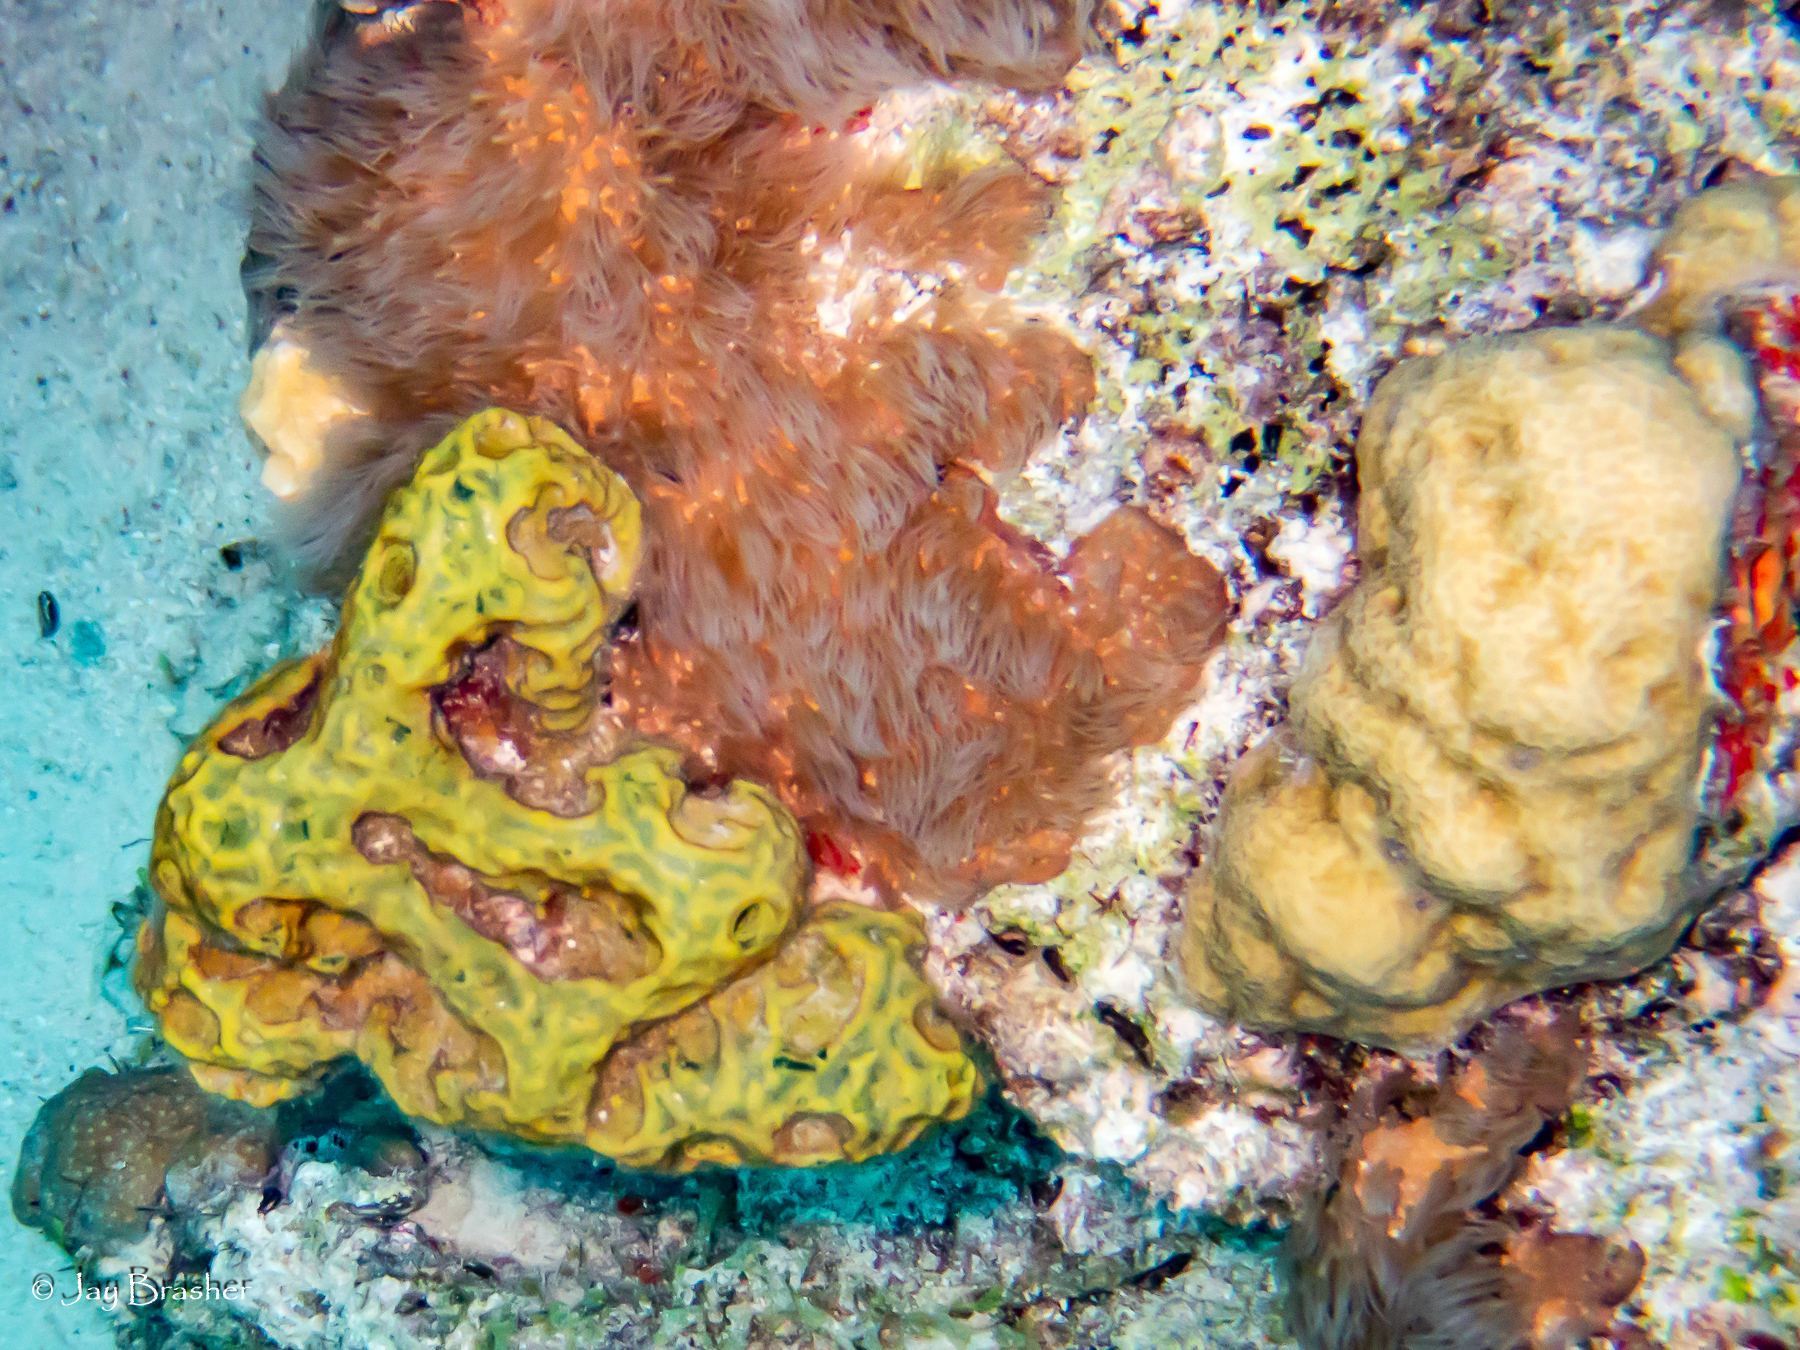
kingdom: Animalia
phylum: Porifera
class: Demospongiae
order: Verongiida
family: Aplysinidae
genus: Verongula
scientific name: Verongula rigida
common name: Pitted sponge
